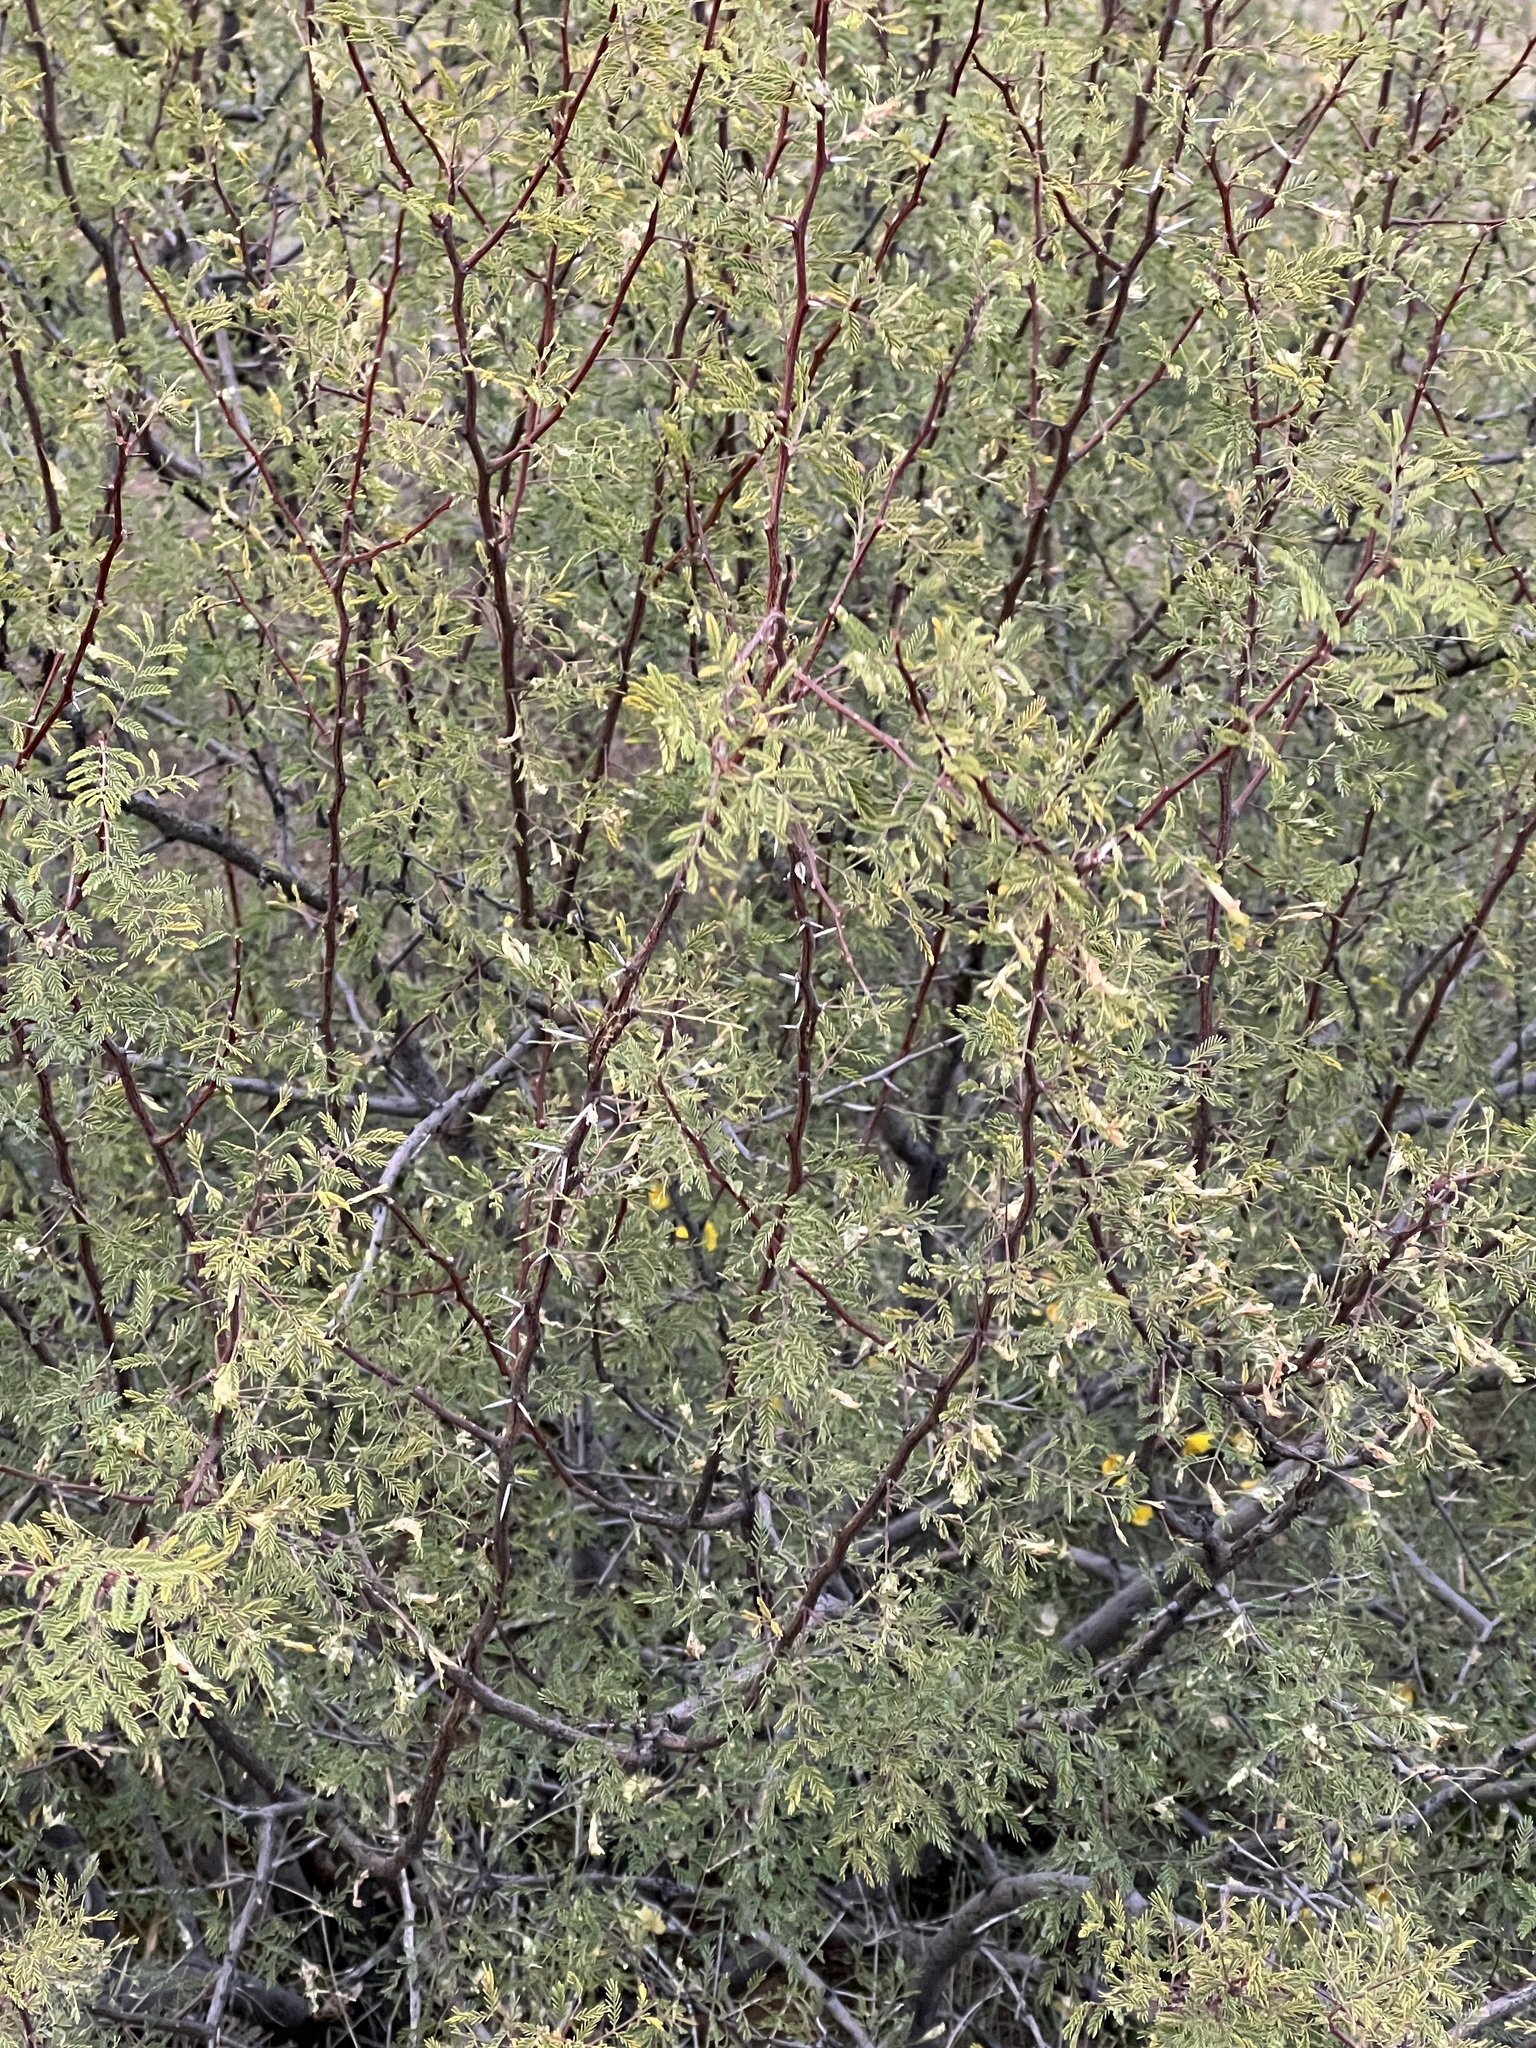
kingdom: Plantae
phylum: Tracheophyta
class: Magnoliopsida
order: Fabales
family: Fabaceae
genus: Vachellia
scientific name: Vachellia constricta
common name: Mescat acacia
